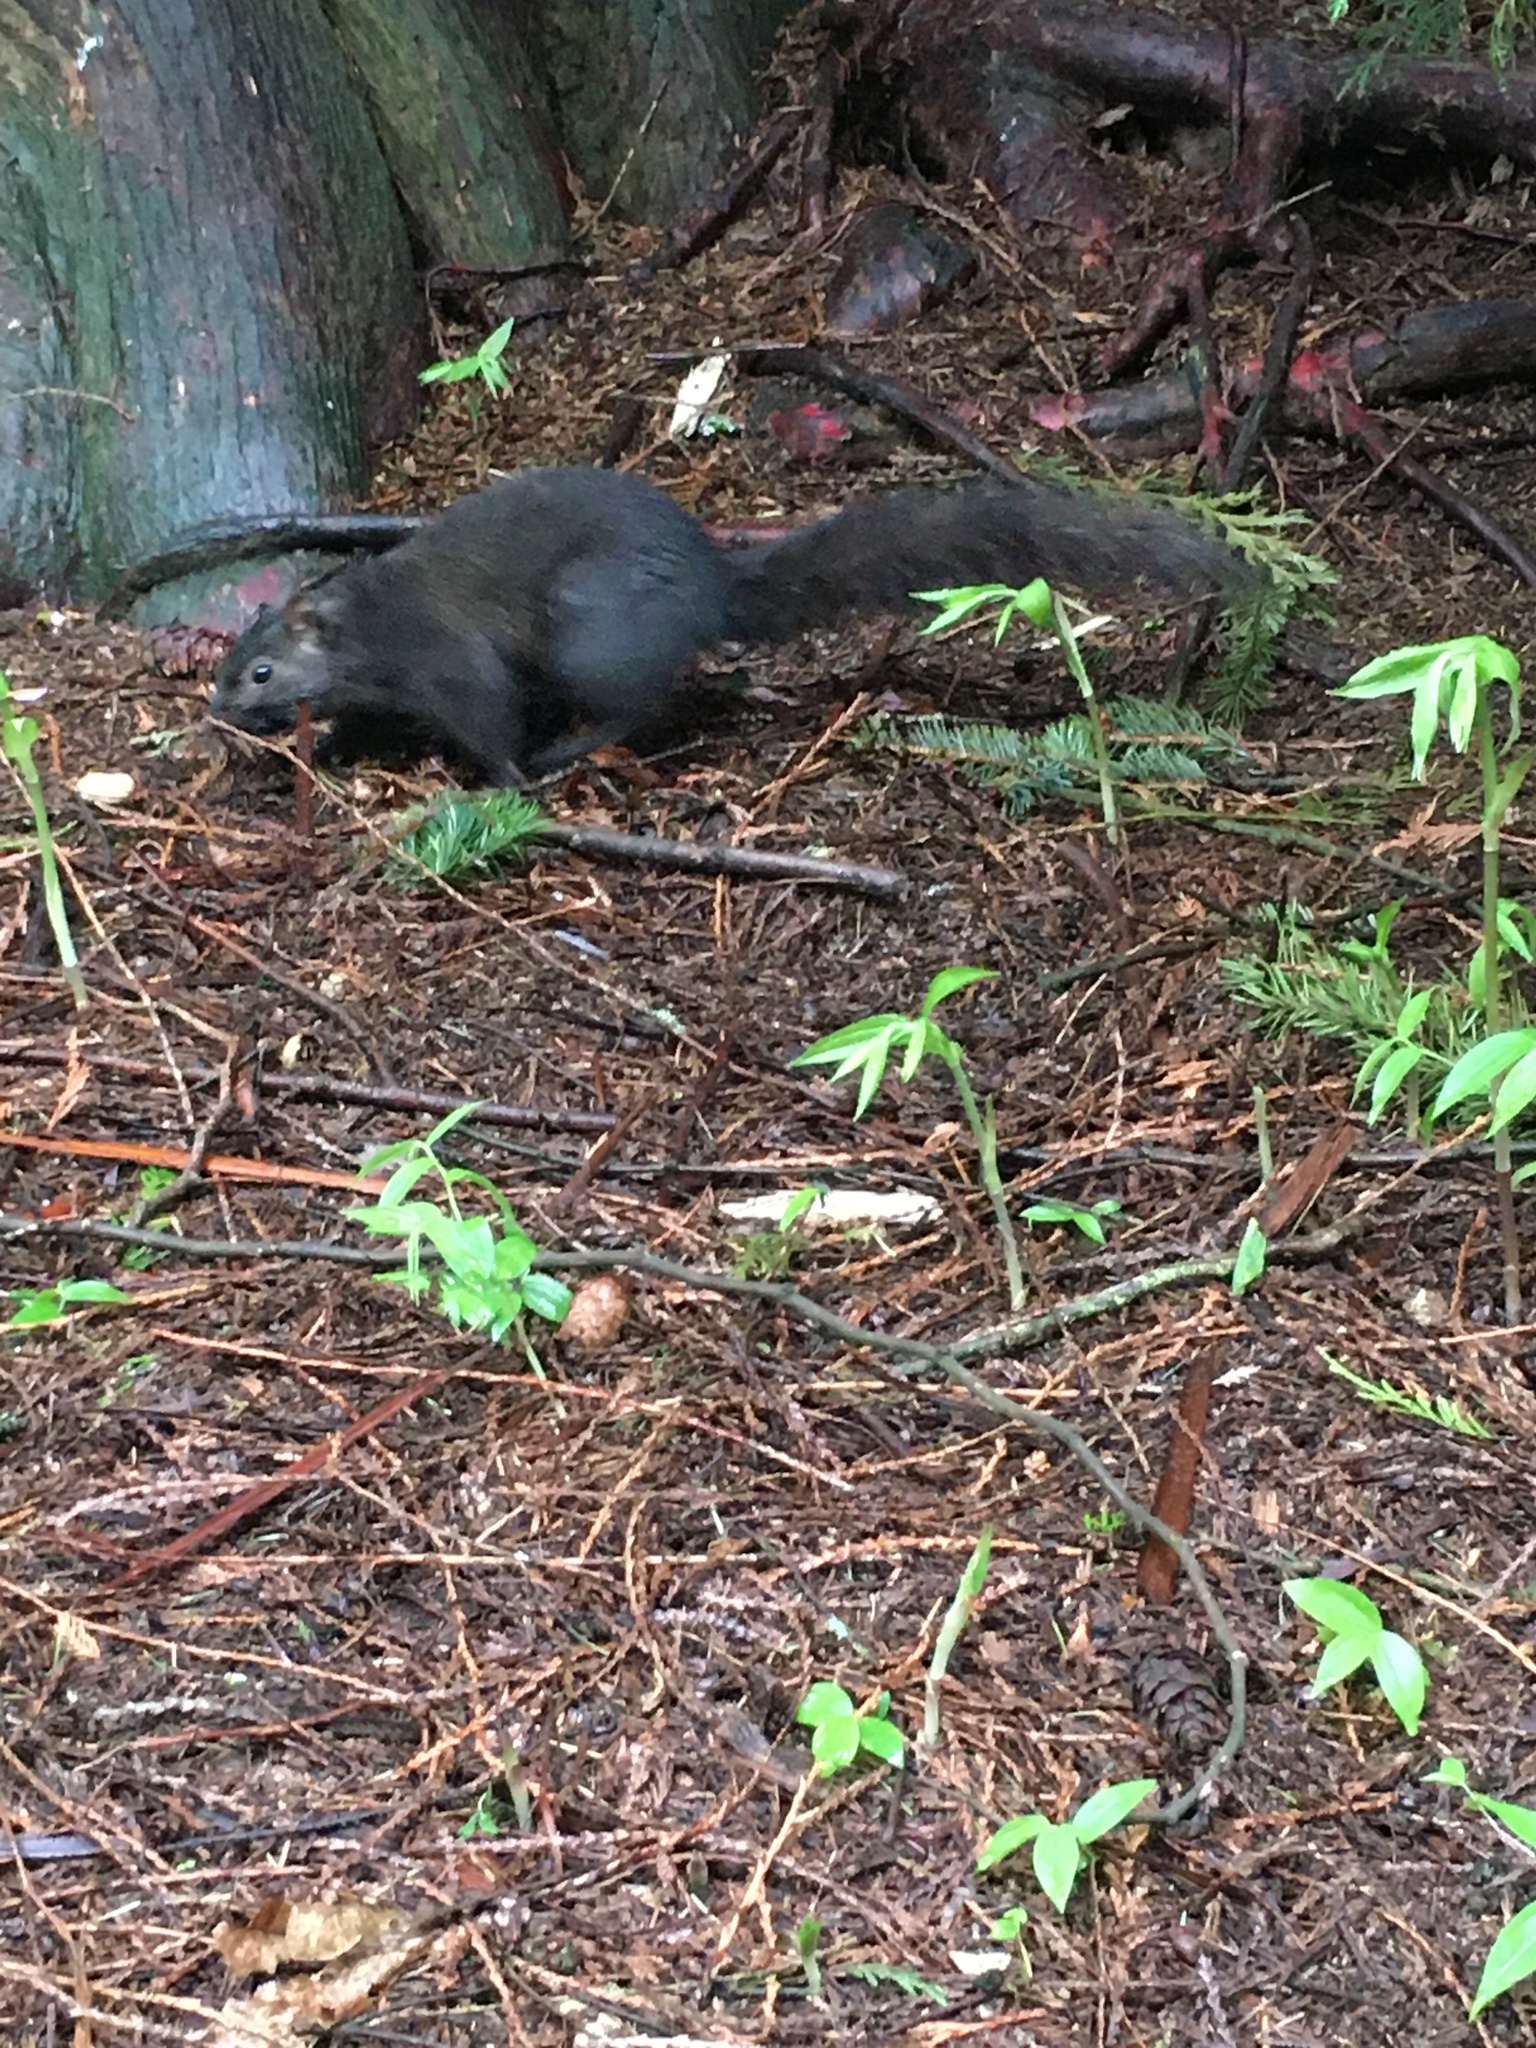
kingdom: Animalia
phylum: Chordata
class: Mammalia
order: Rodentia
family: Sciuridae
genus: Sciurus
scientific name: Sciurus carolinensis
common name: Eastern gray squirrel
